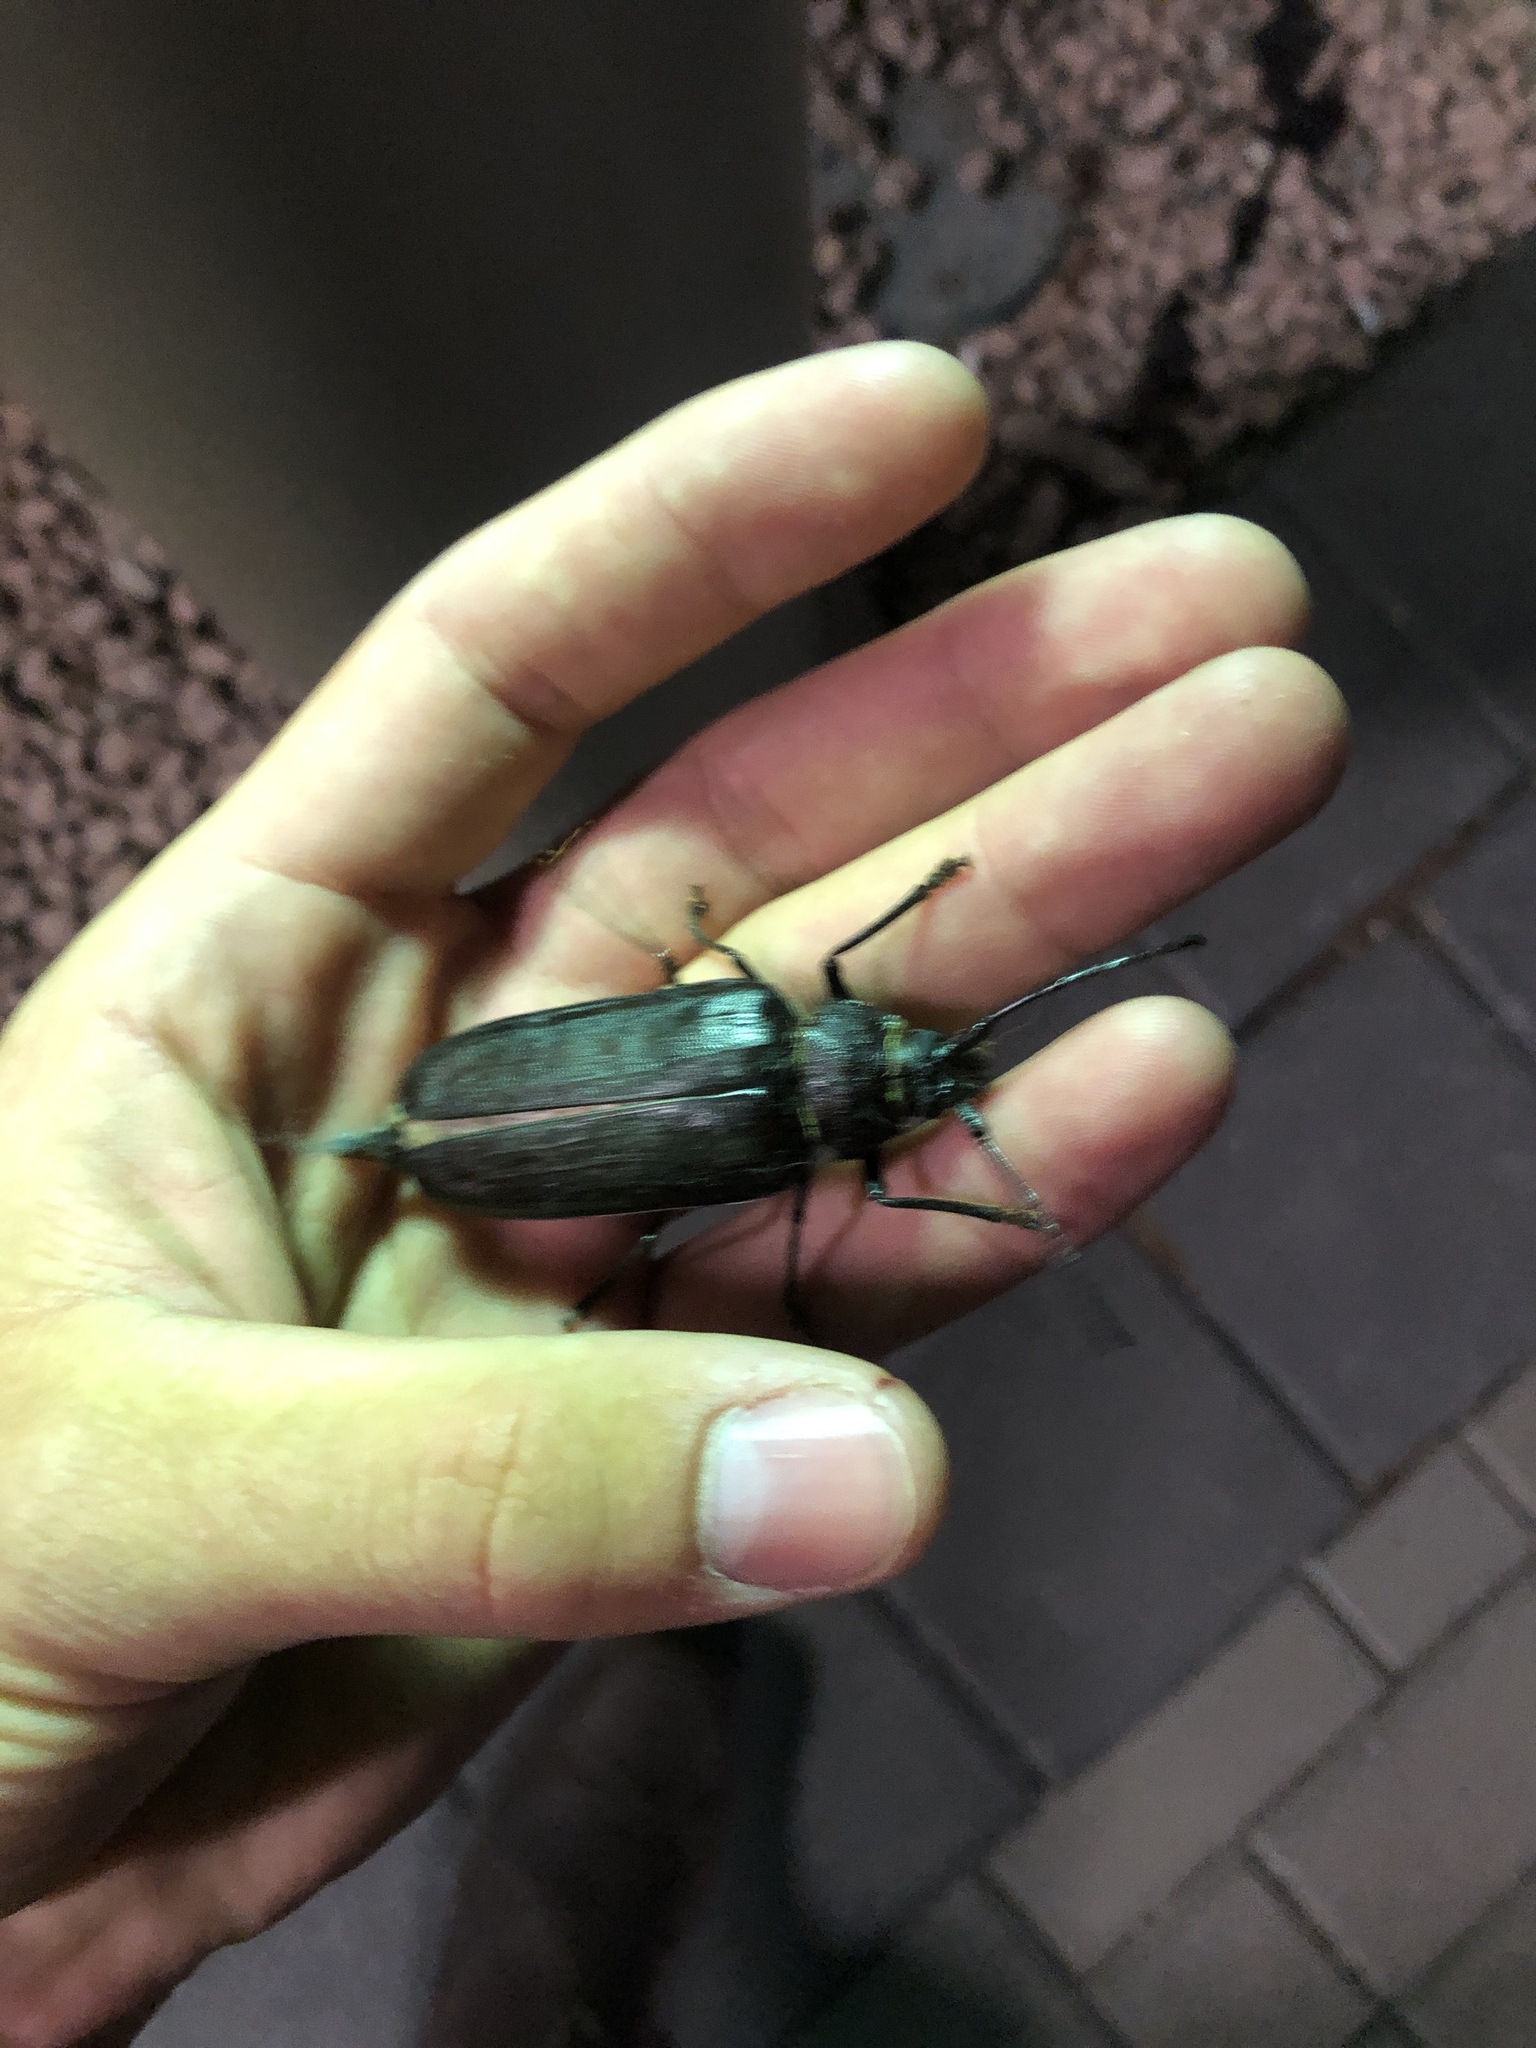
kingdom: Animalia
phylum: Arthropoda
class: Insecta
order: Coleoptera
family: Cerambycidae
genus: Trichocnemis
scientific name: Trichocnemis spiculatus
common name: Long-horned beetle
